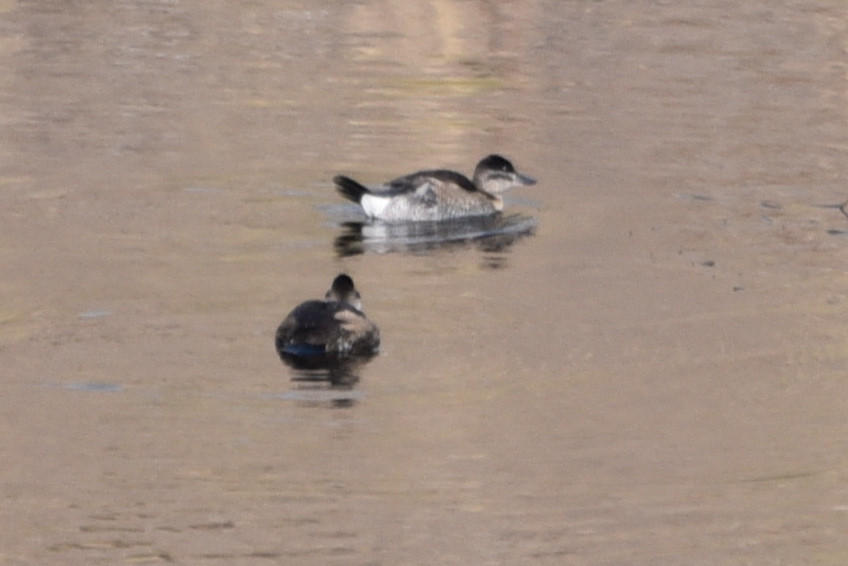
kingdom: Animalia
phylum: Chordata
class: Aves
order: Anseriformes
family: Anatidae
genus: Oxyura
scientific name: Oxyura jamaicensis
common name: Ruddy duck
